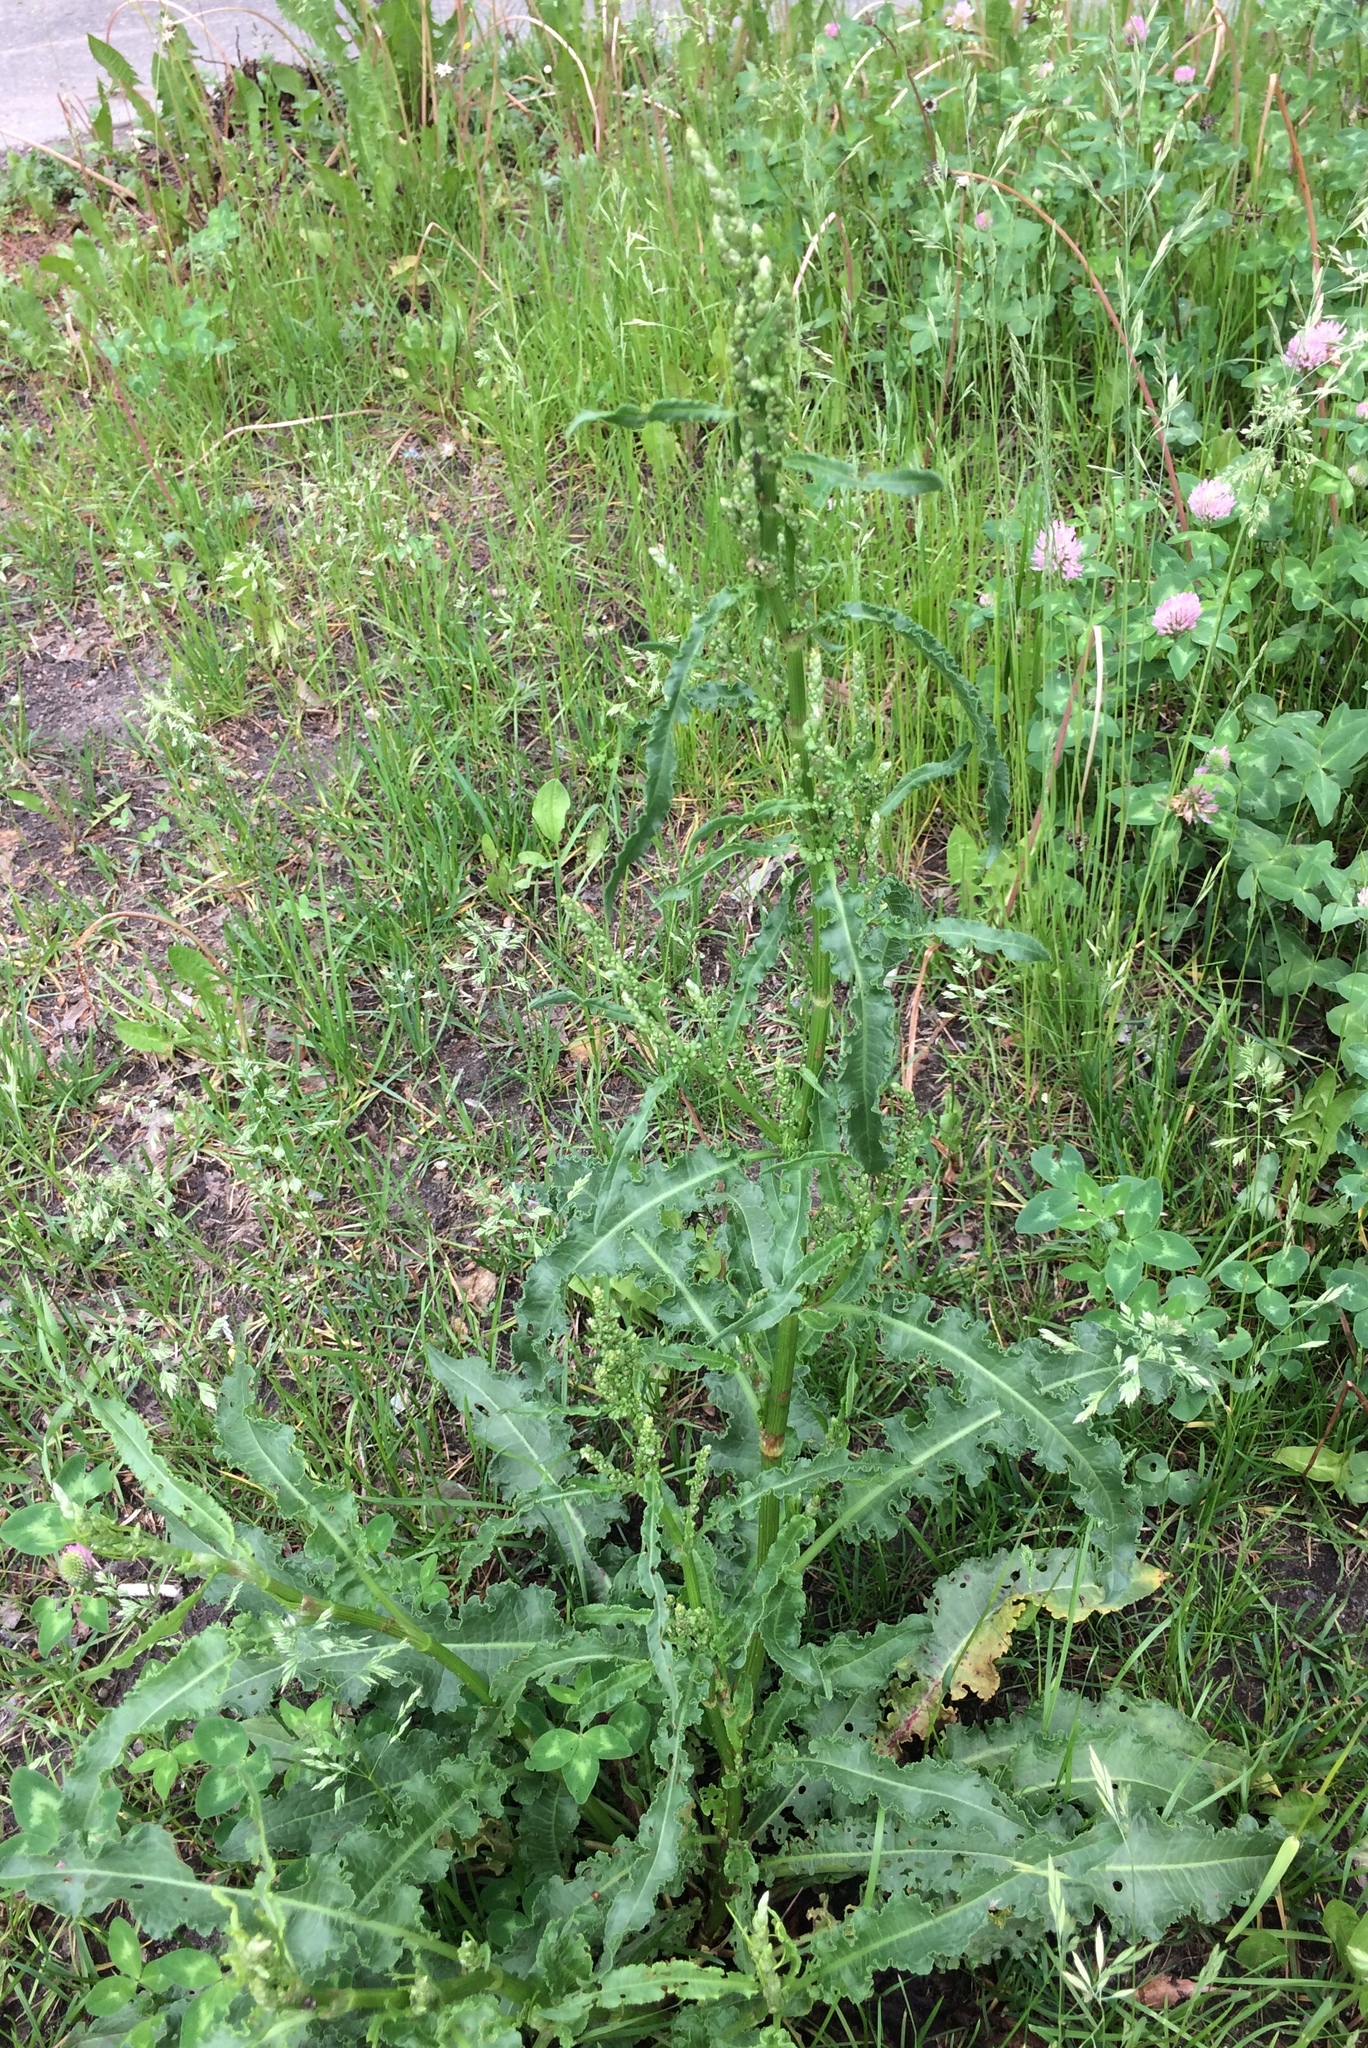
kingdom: Plantae
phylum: Tracheophyta
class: Magnoliopsida
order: Caryophyllales
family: Polygonaceae
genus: Rumex
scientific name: Rumex crispus
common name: Curled dock
